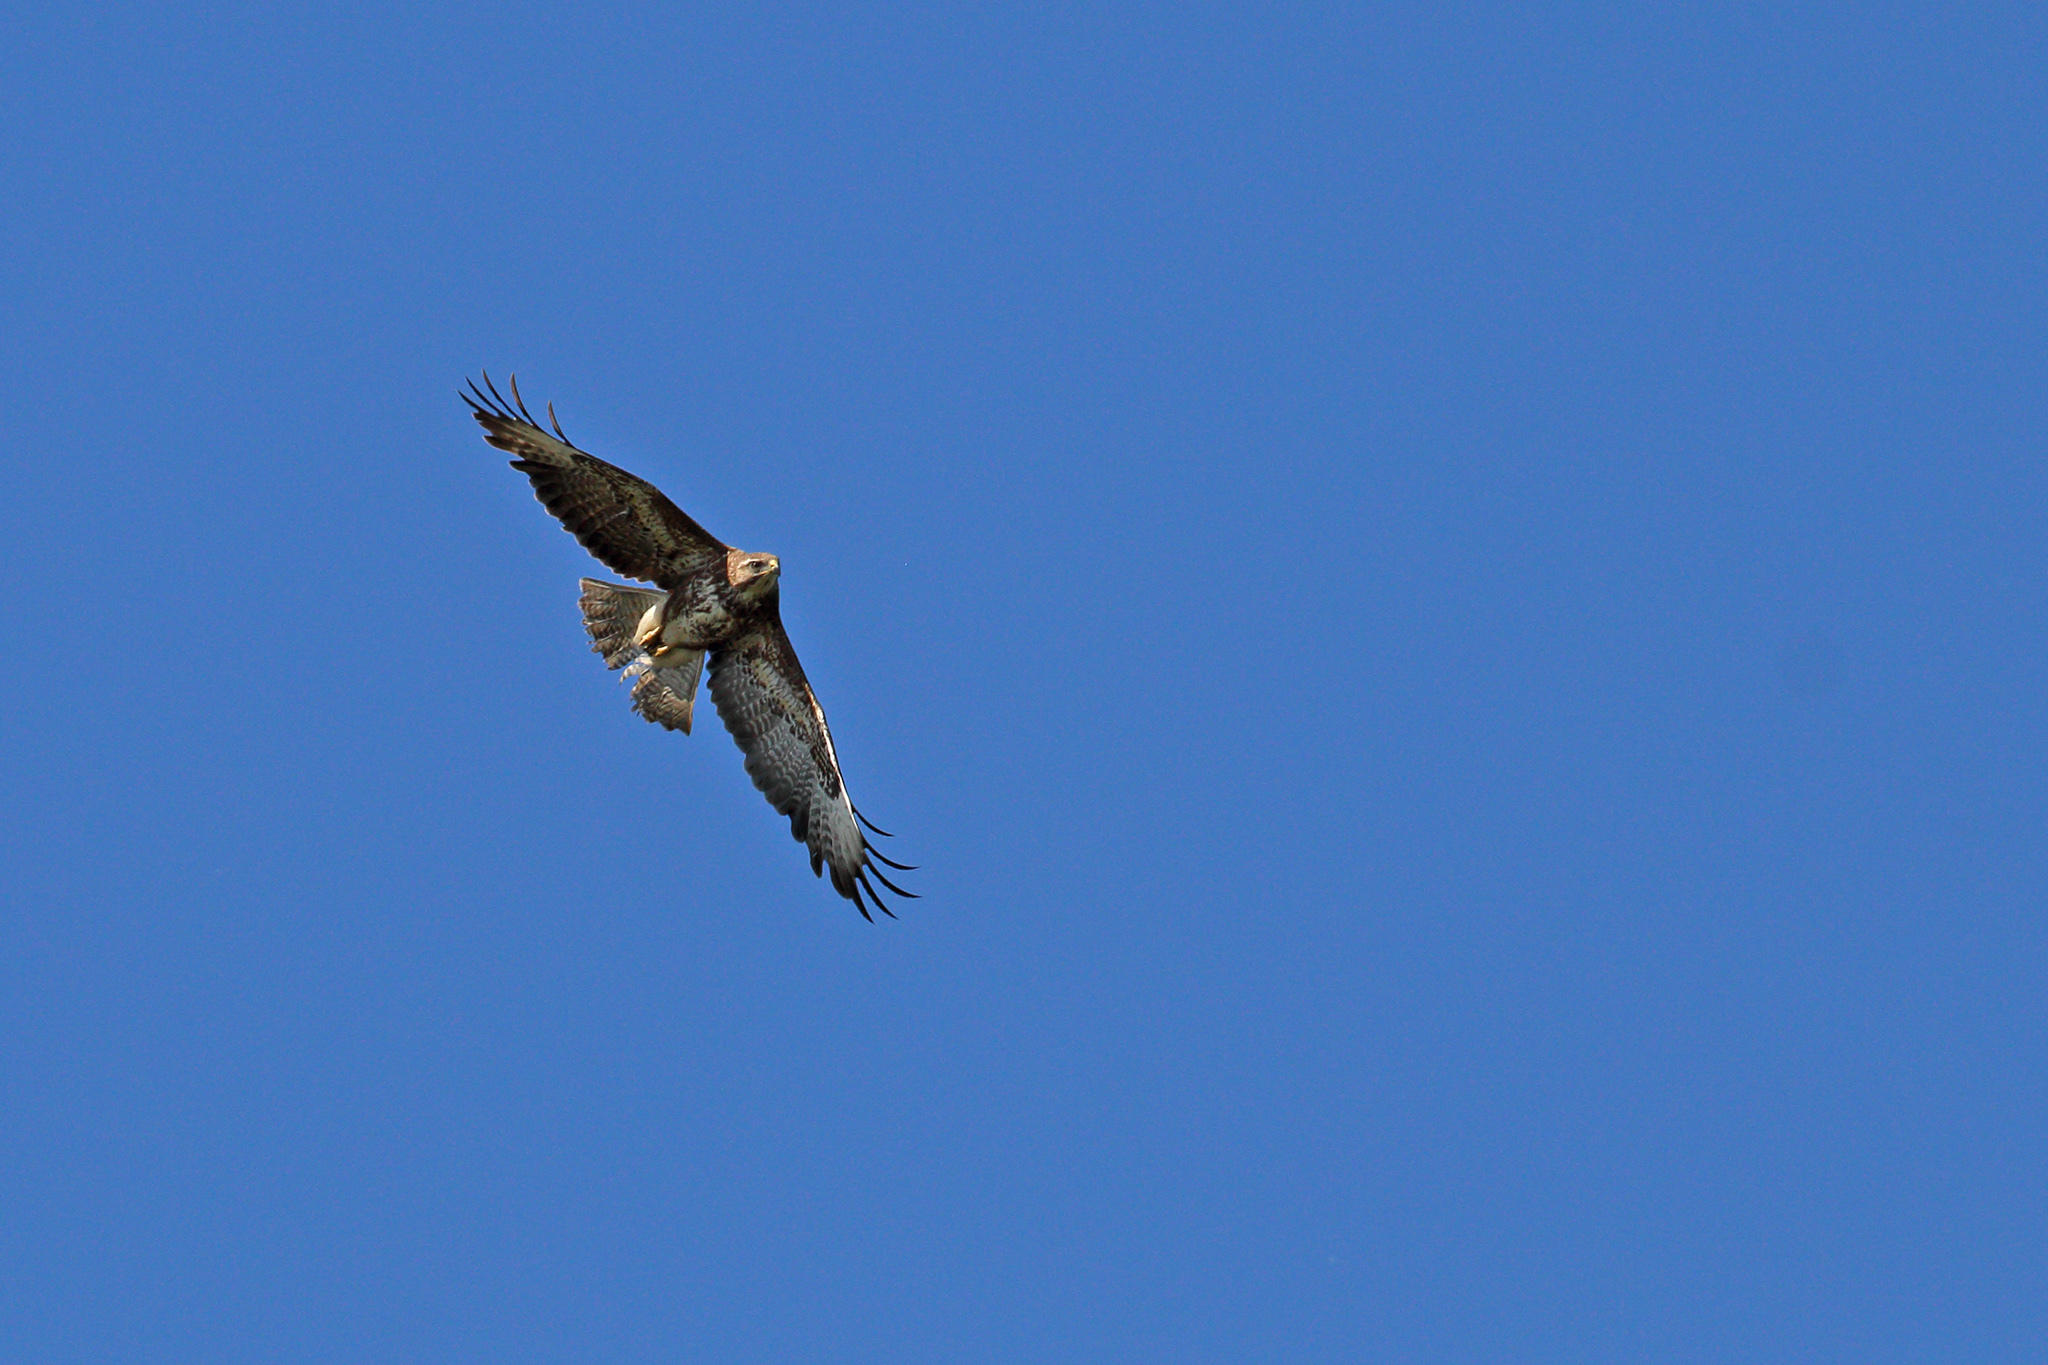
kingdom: Animalia
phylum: Chordata
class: Aves
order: Accipitriformes
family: Accipitridae
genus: Buteo
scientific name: Buteo buteo
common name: Common buzzard
